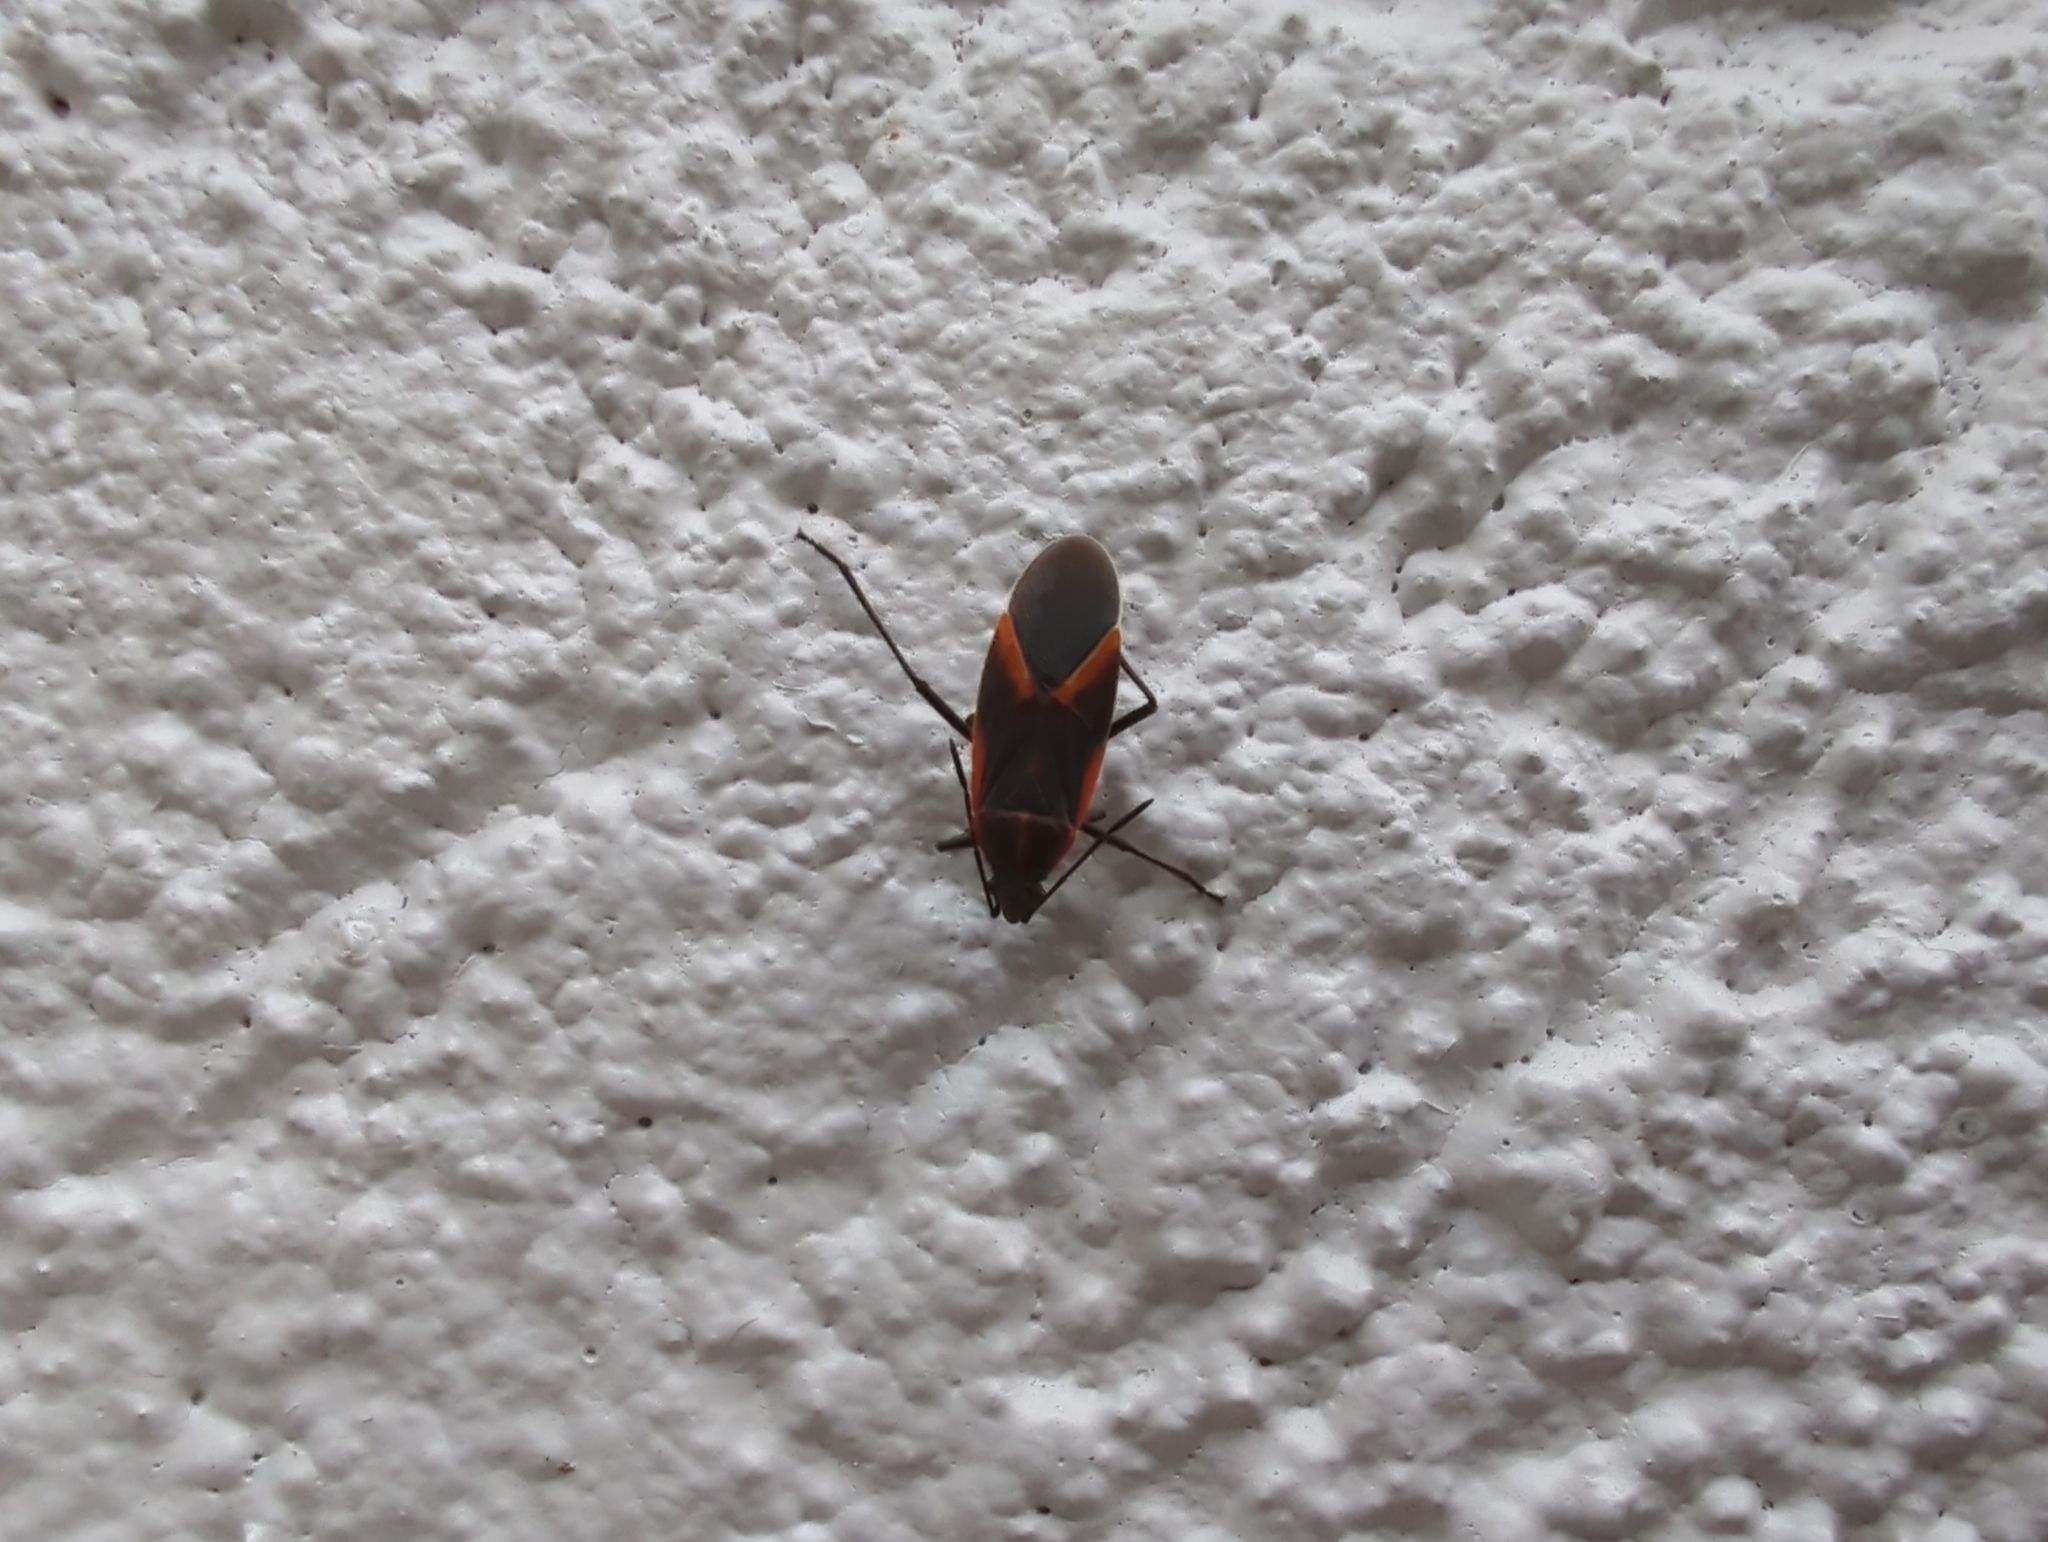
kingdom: Animalia
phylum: Arthropoda
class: Insecta
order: Hemiptera
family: Rhopalidae
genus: Boisea
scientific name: Boisea trivittata
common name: Boxelder bug
